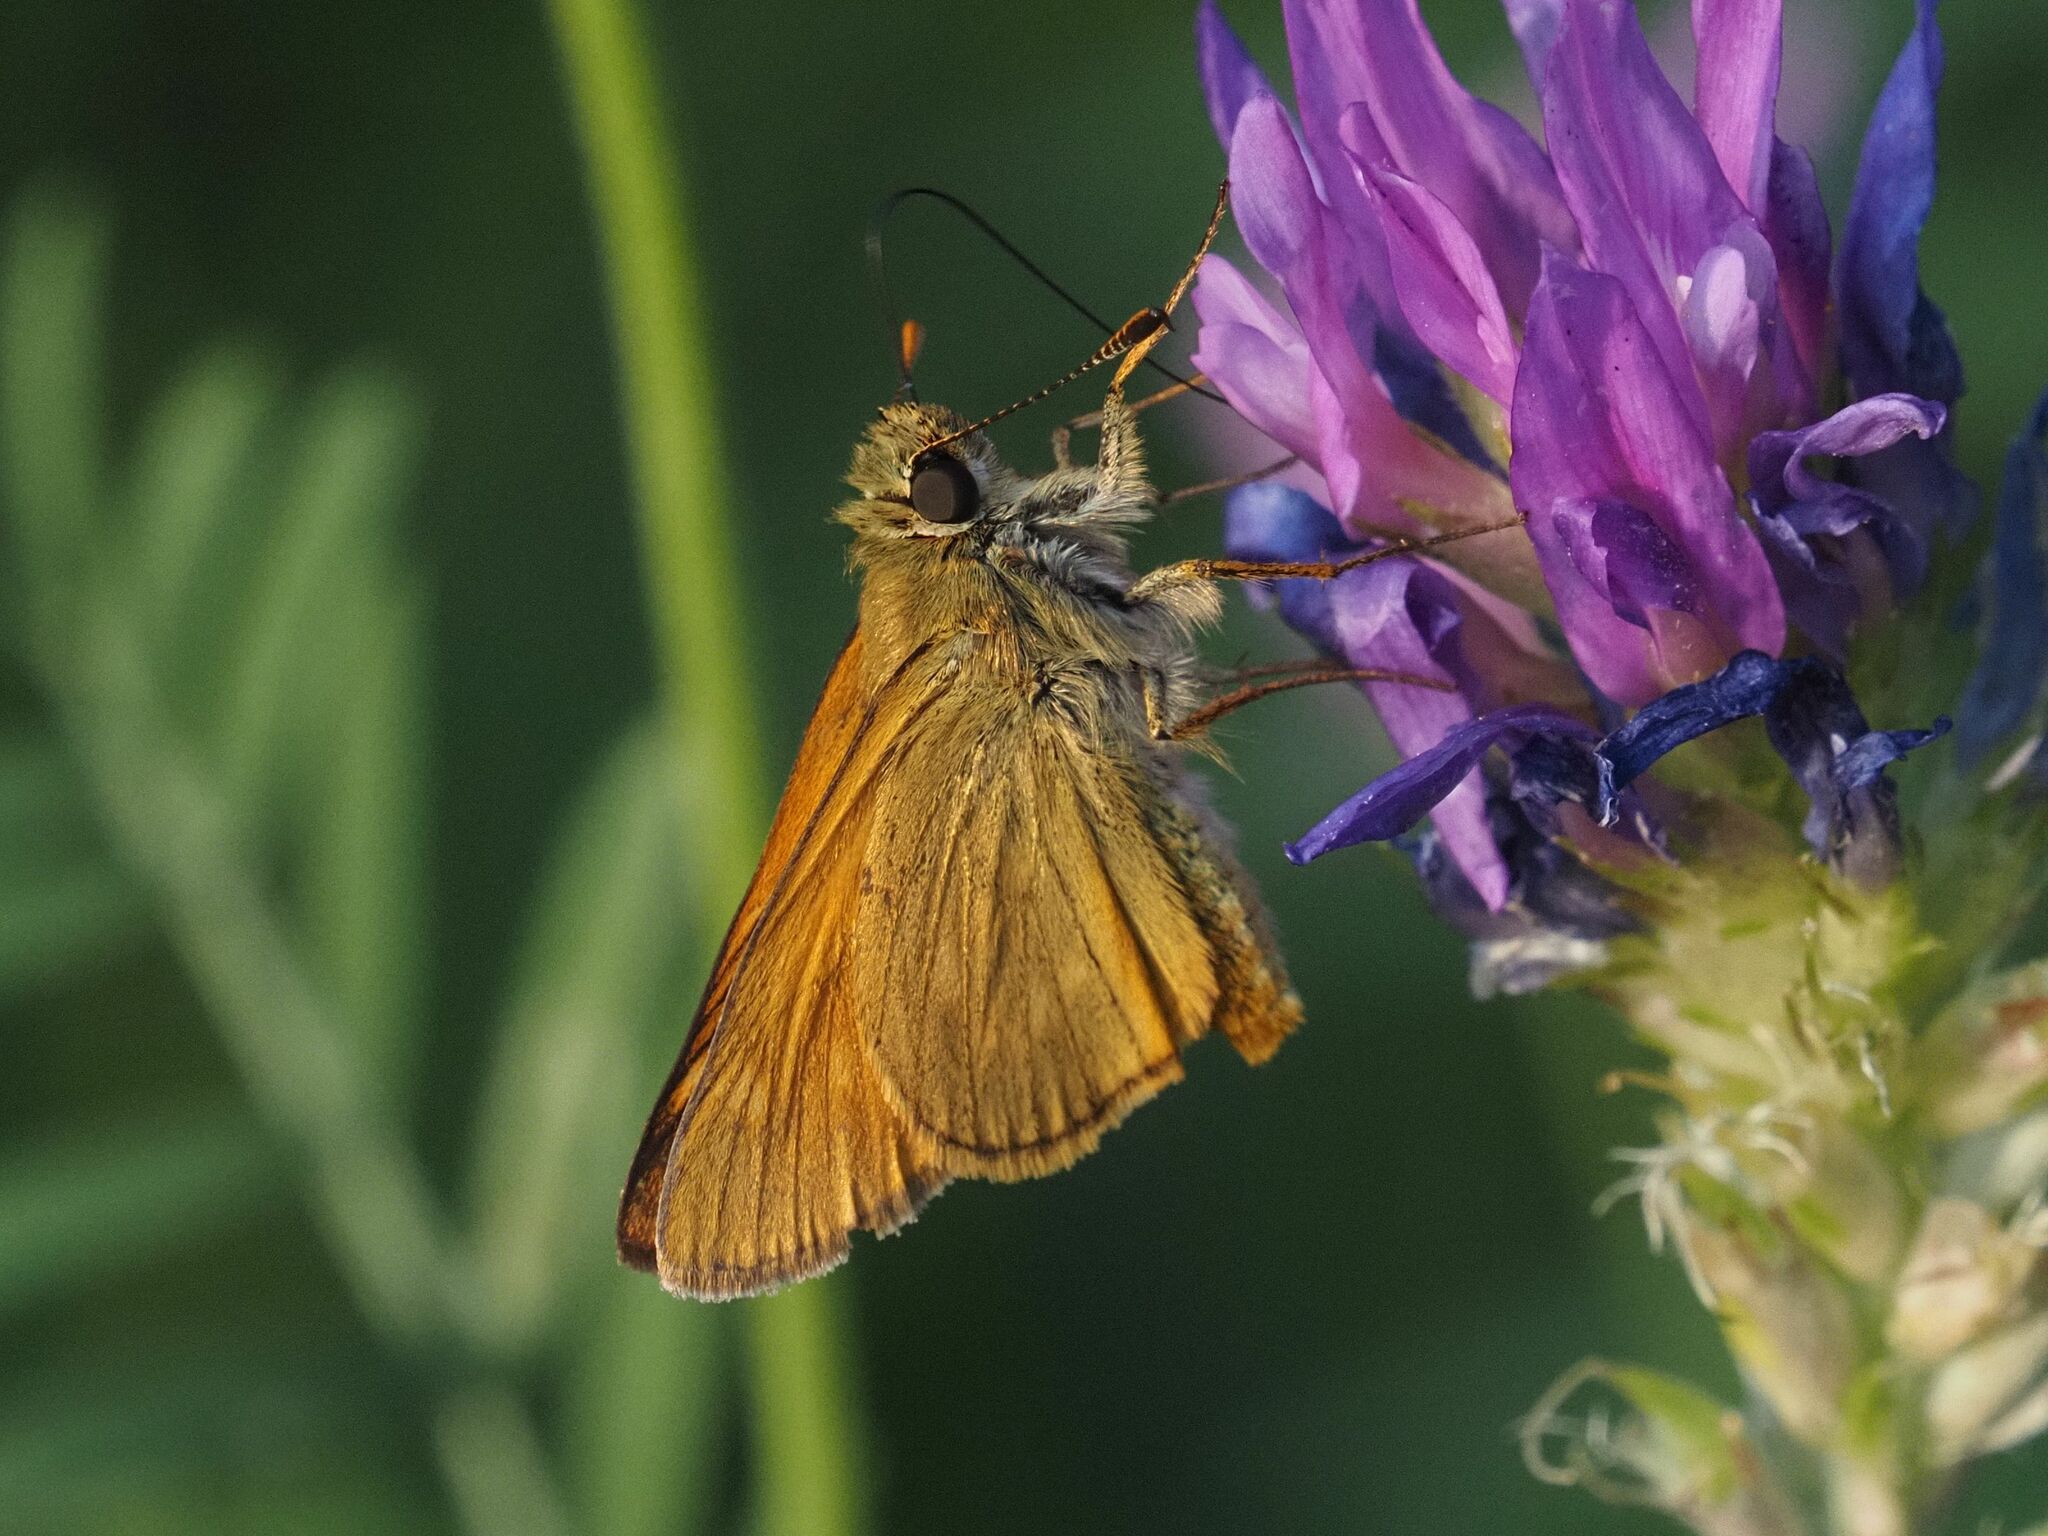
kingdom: Animalia
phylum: Arthropoda
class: Insecta
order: Lepidoptera
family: Hesperiidae
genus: Ochlodes
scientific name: Ochlodes venata
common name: Large skipper
